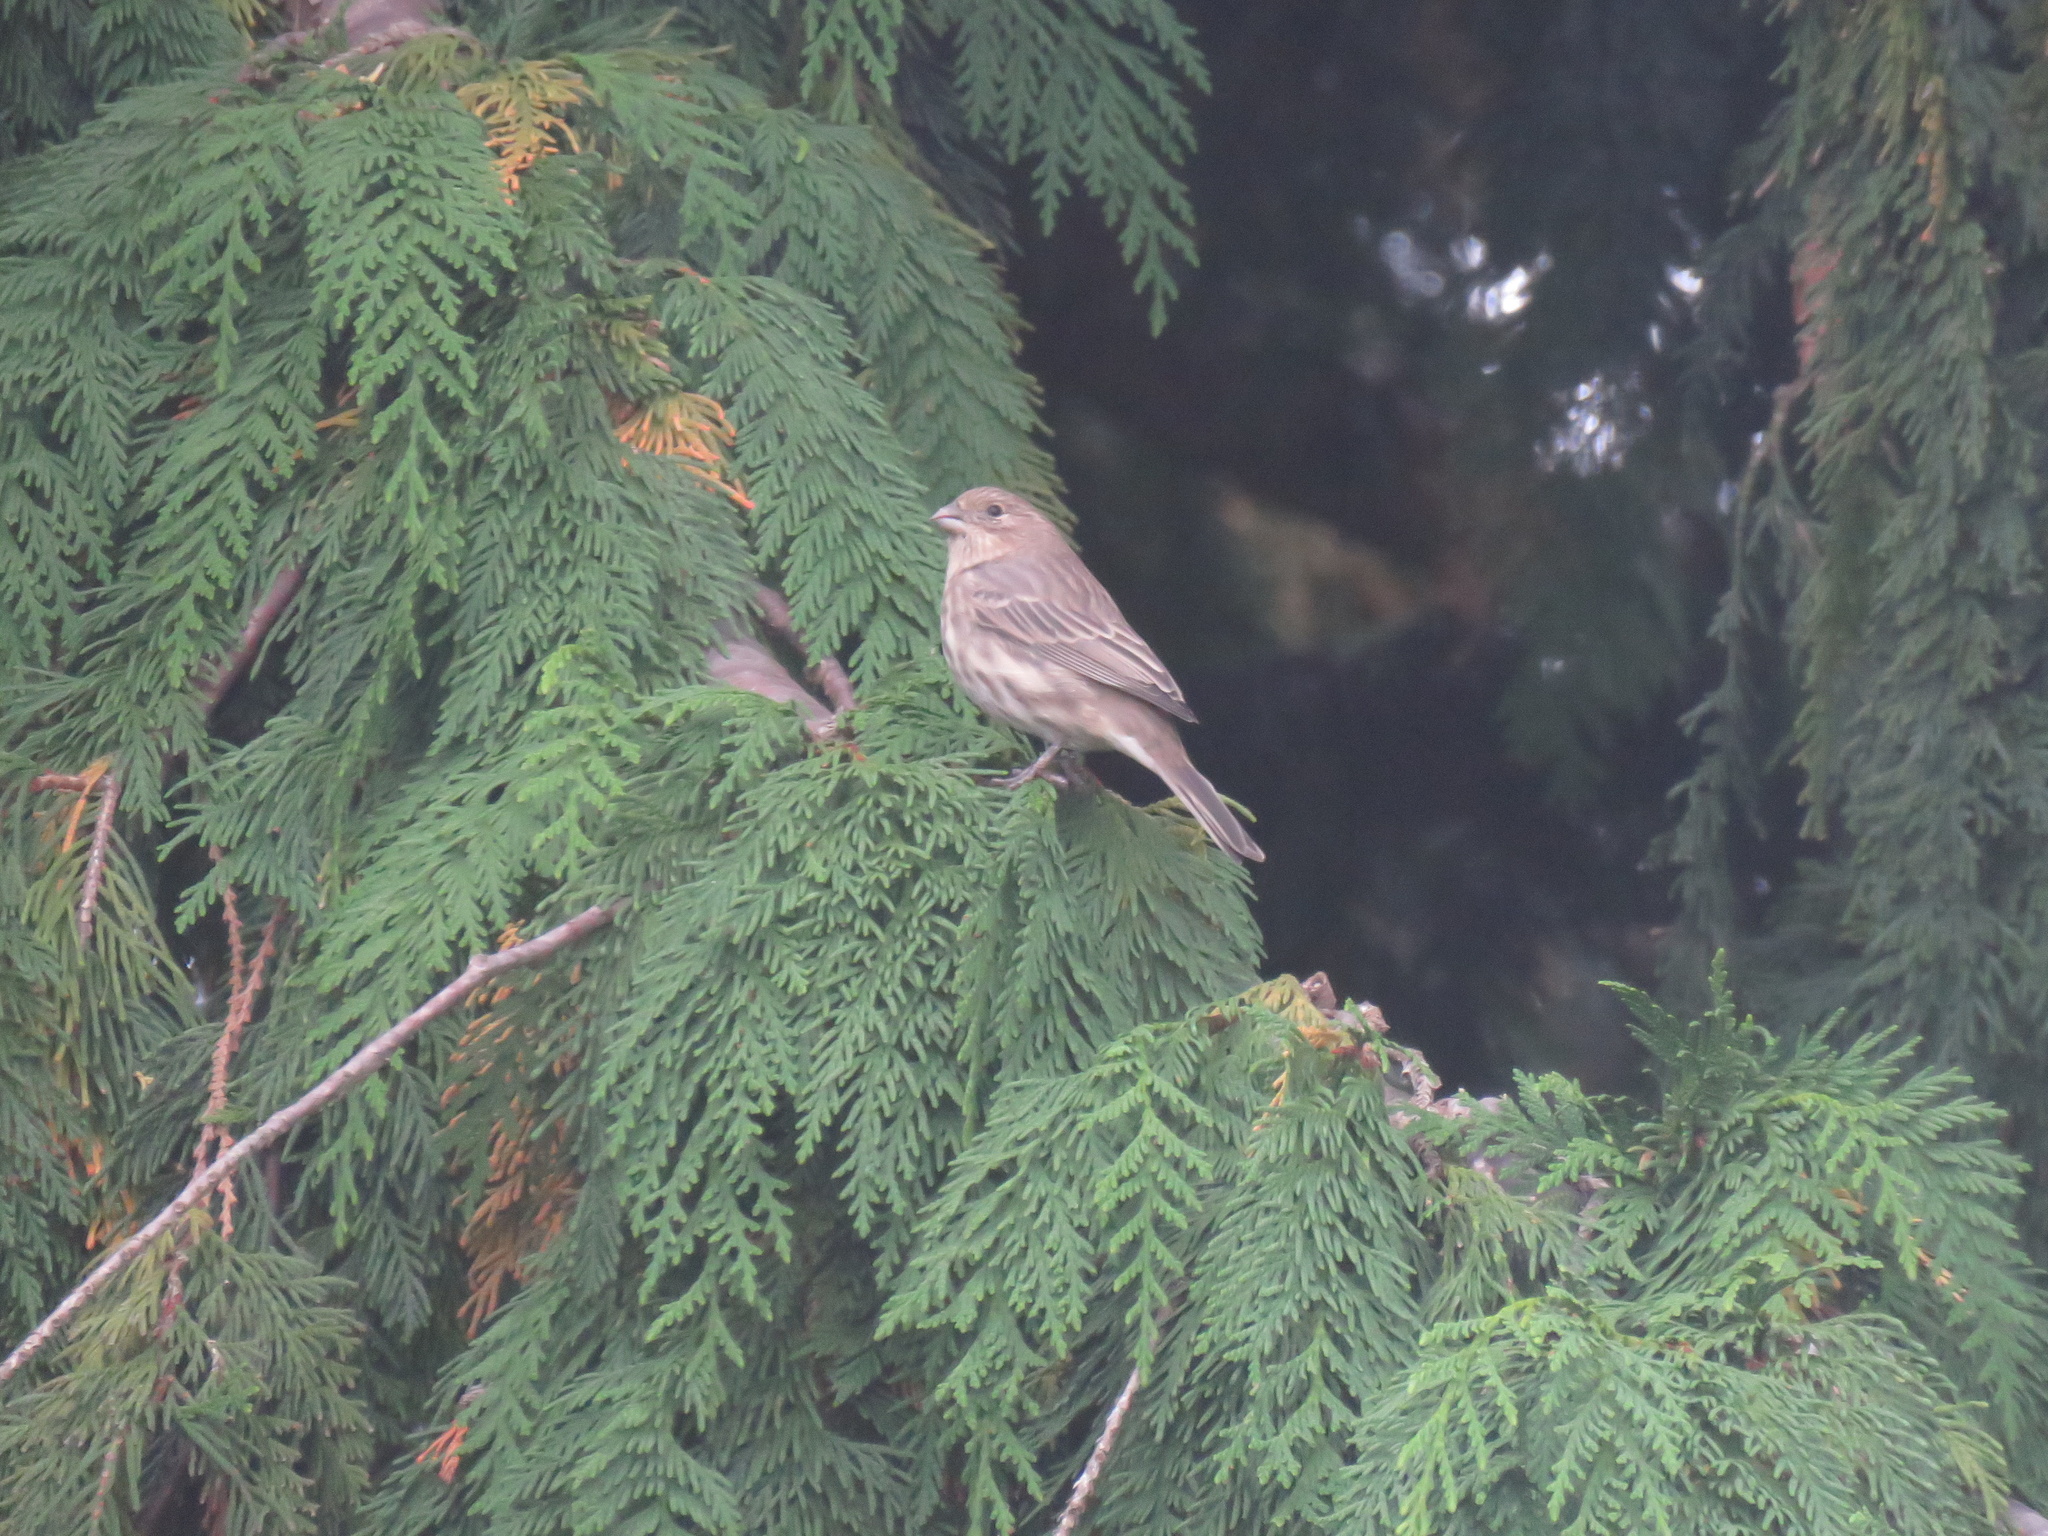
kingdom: Animalia
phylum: Chordata
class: Aves
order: Passeriformes
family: Fringillidae
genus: Haemorhous
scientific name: Haemorhous mexicanus
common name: House finch
